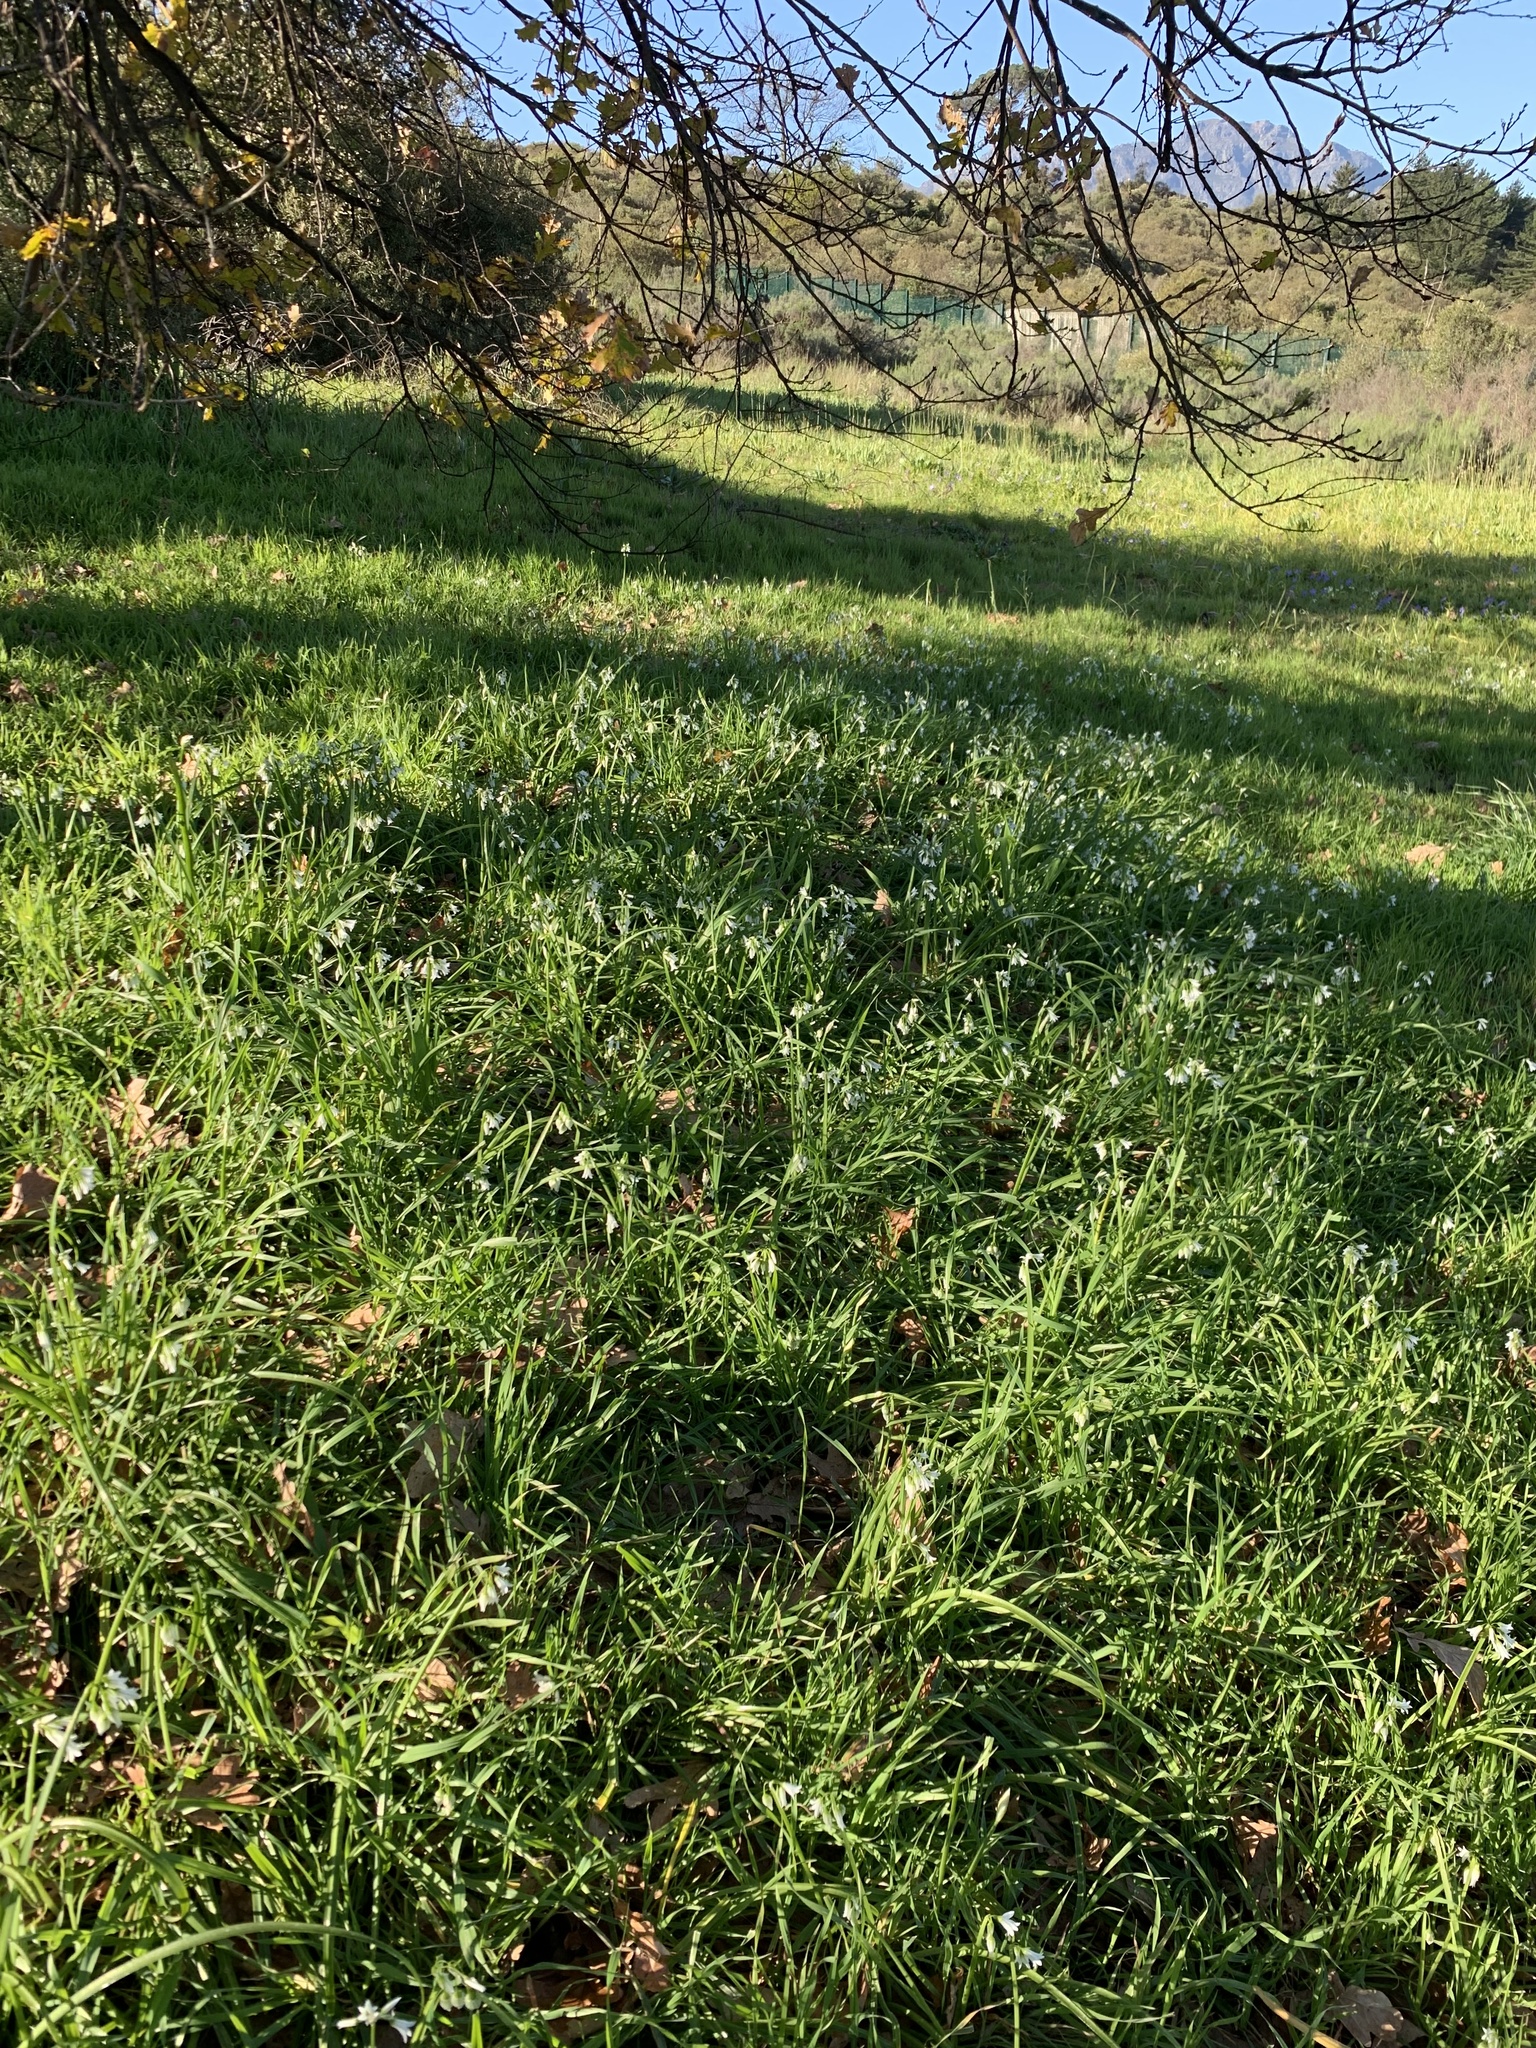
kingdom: Plantae
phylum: Tracheophyta
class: Liliopsida
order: Asparagales
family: Amaryllidaceae
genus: Allium
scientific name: Allium triquetrum
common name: Three-cornered garlic
